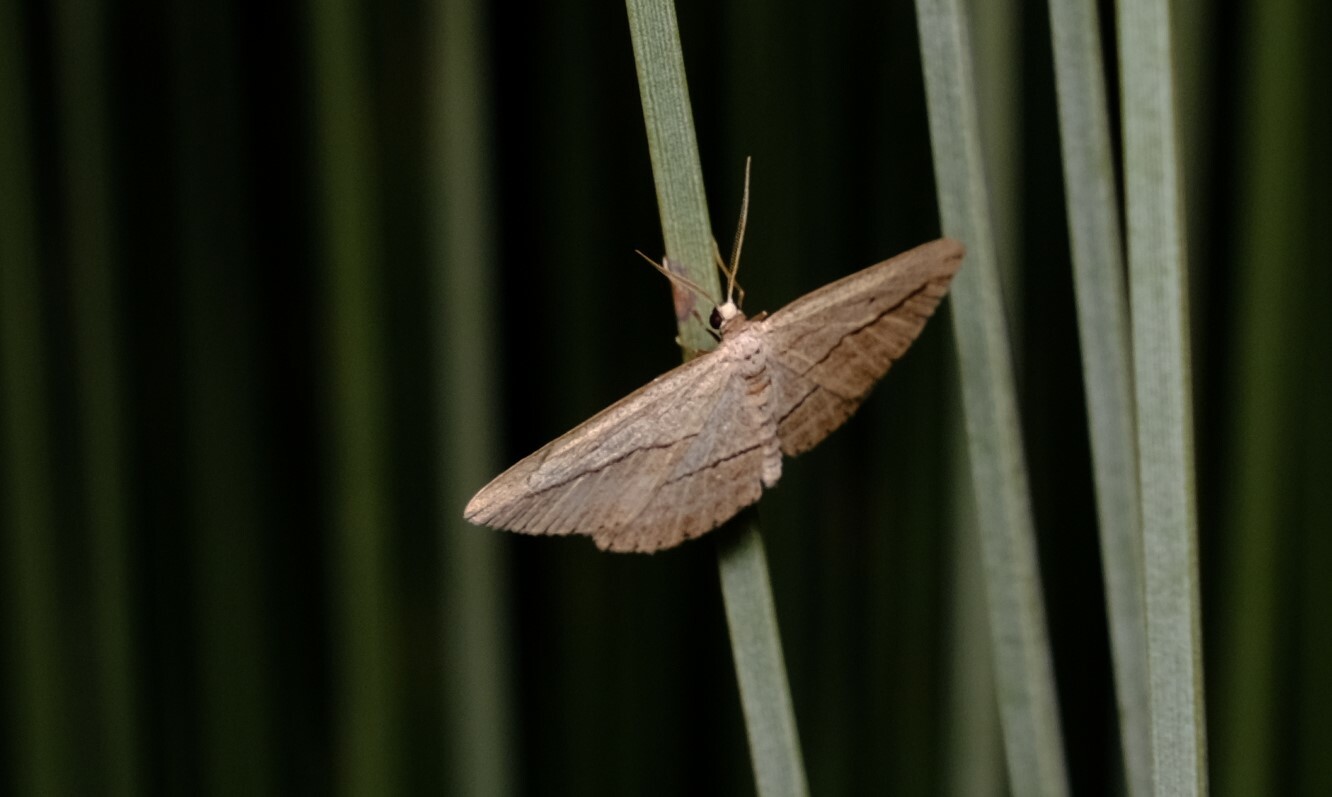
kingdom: Animalia
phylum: Arthropoda
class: Insecta
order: Lepidoptera
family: Geometridae
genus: Cathaemacta
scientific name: Cathaemacta loxomochla
